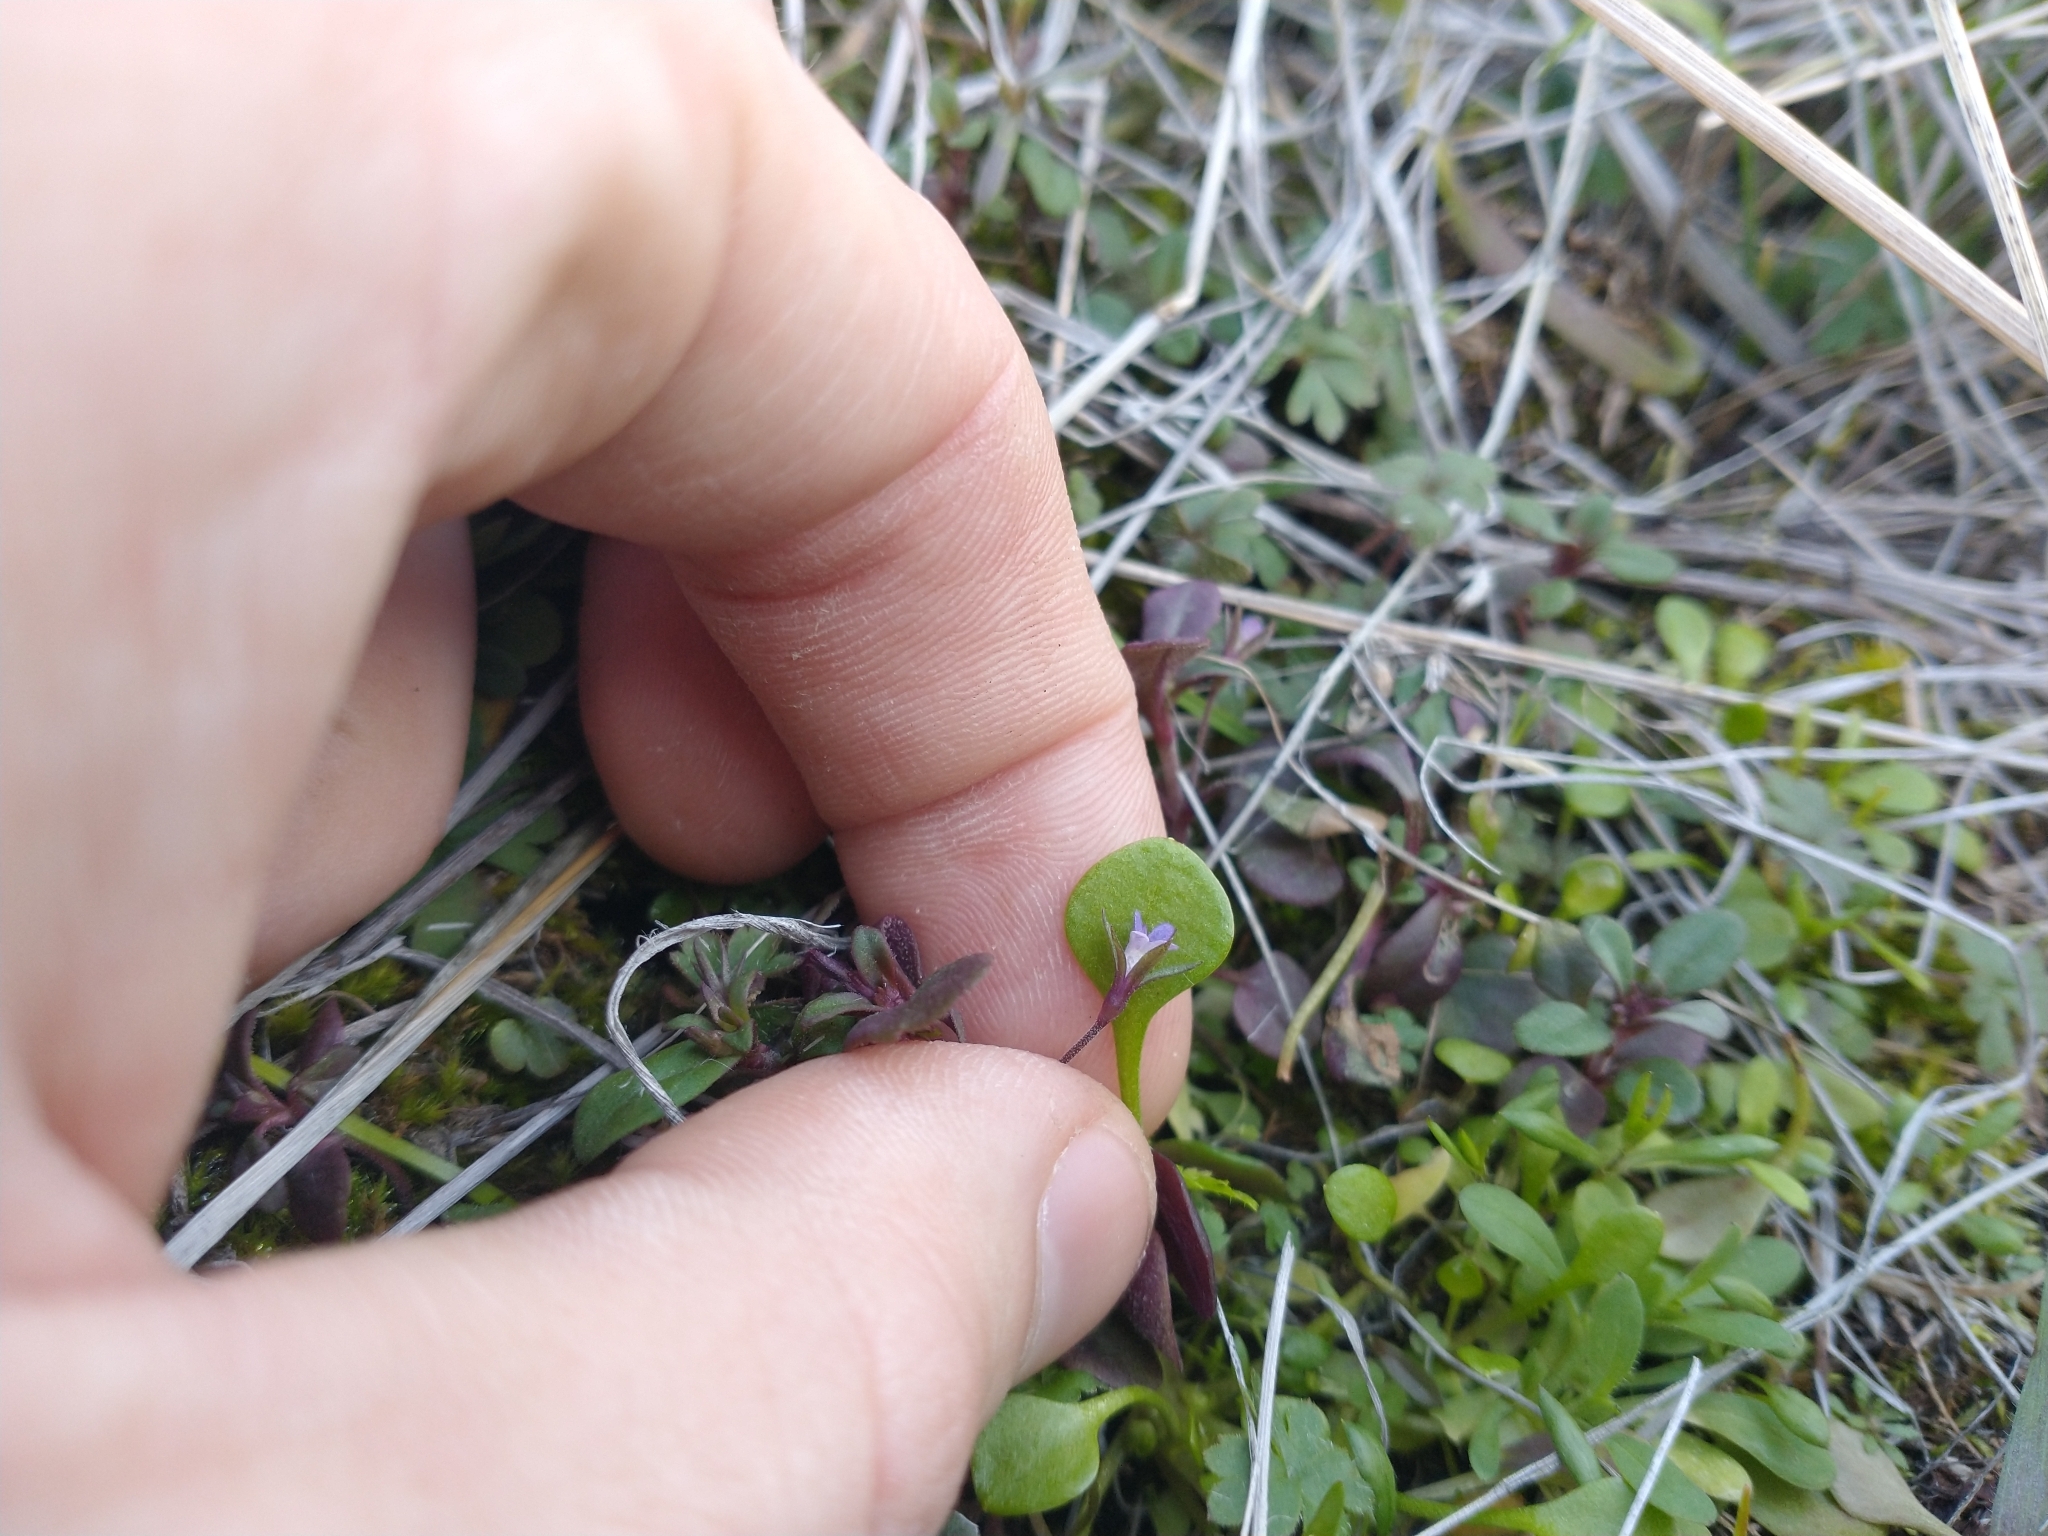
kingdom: Plantae
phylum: Tracheophyta
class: Magnoliopsida
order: Lamiales
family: Plantaginaceae
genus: Collinsia
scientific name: Collinsia parviflora
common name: Blue-lips
